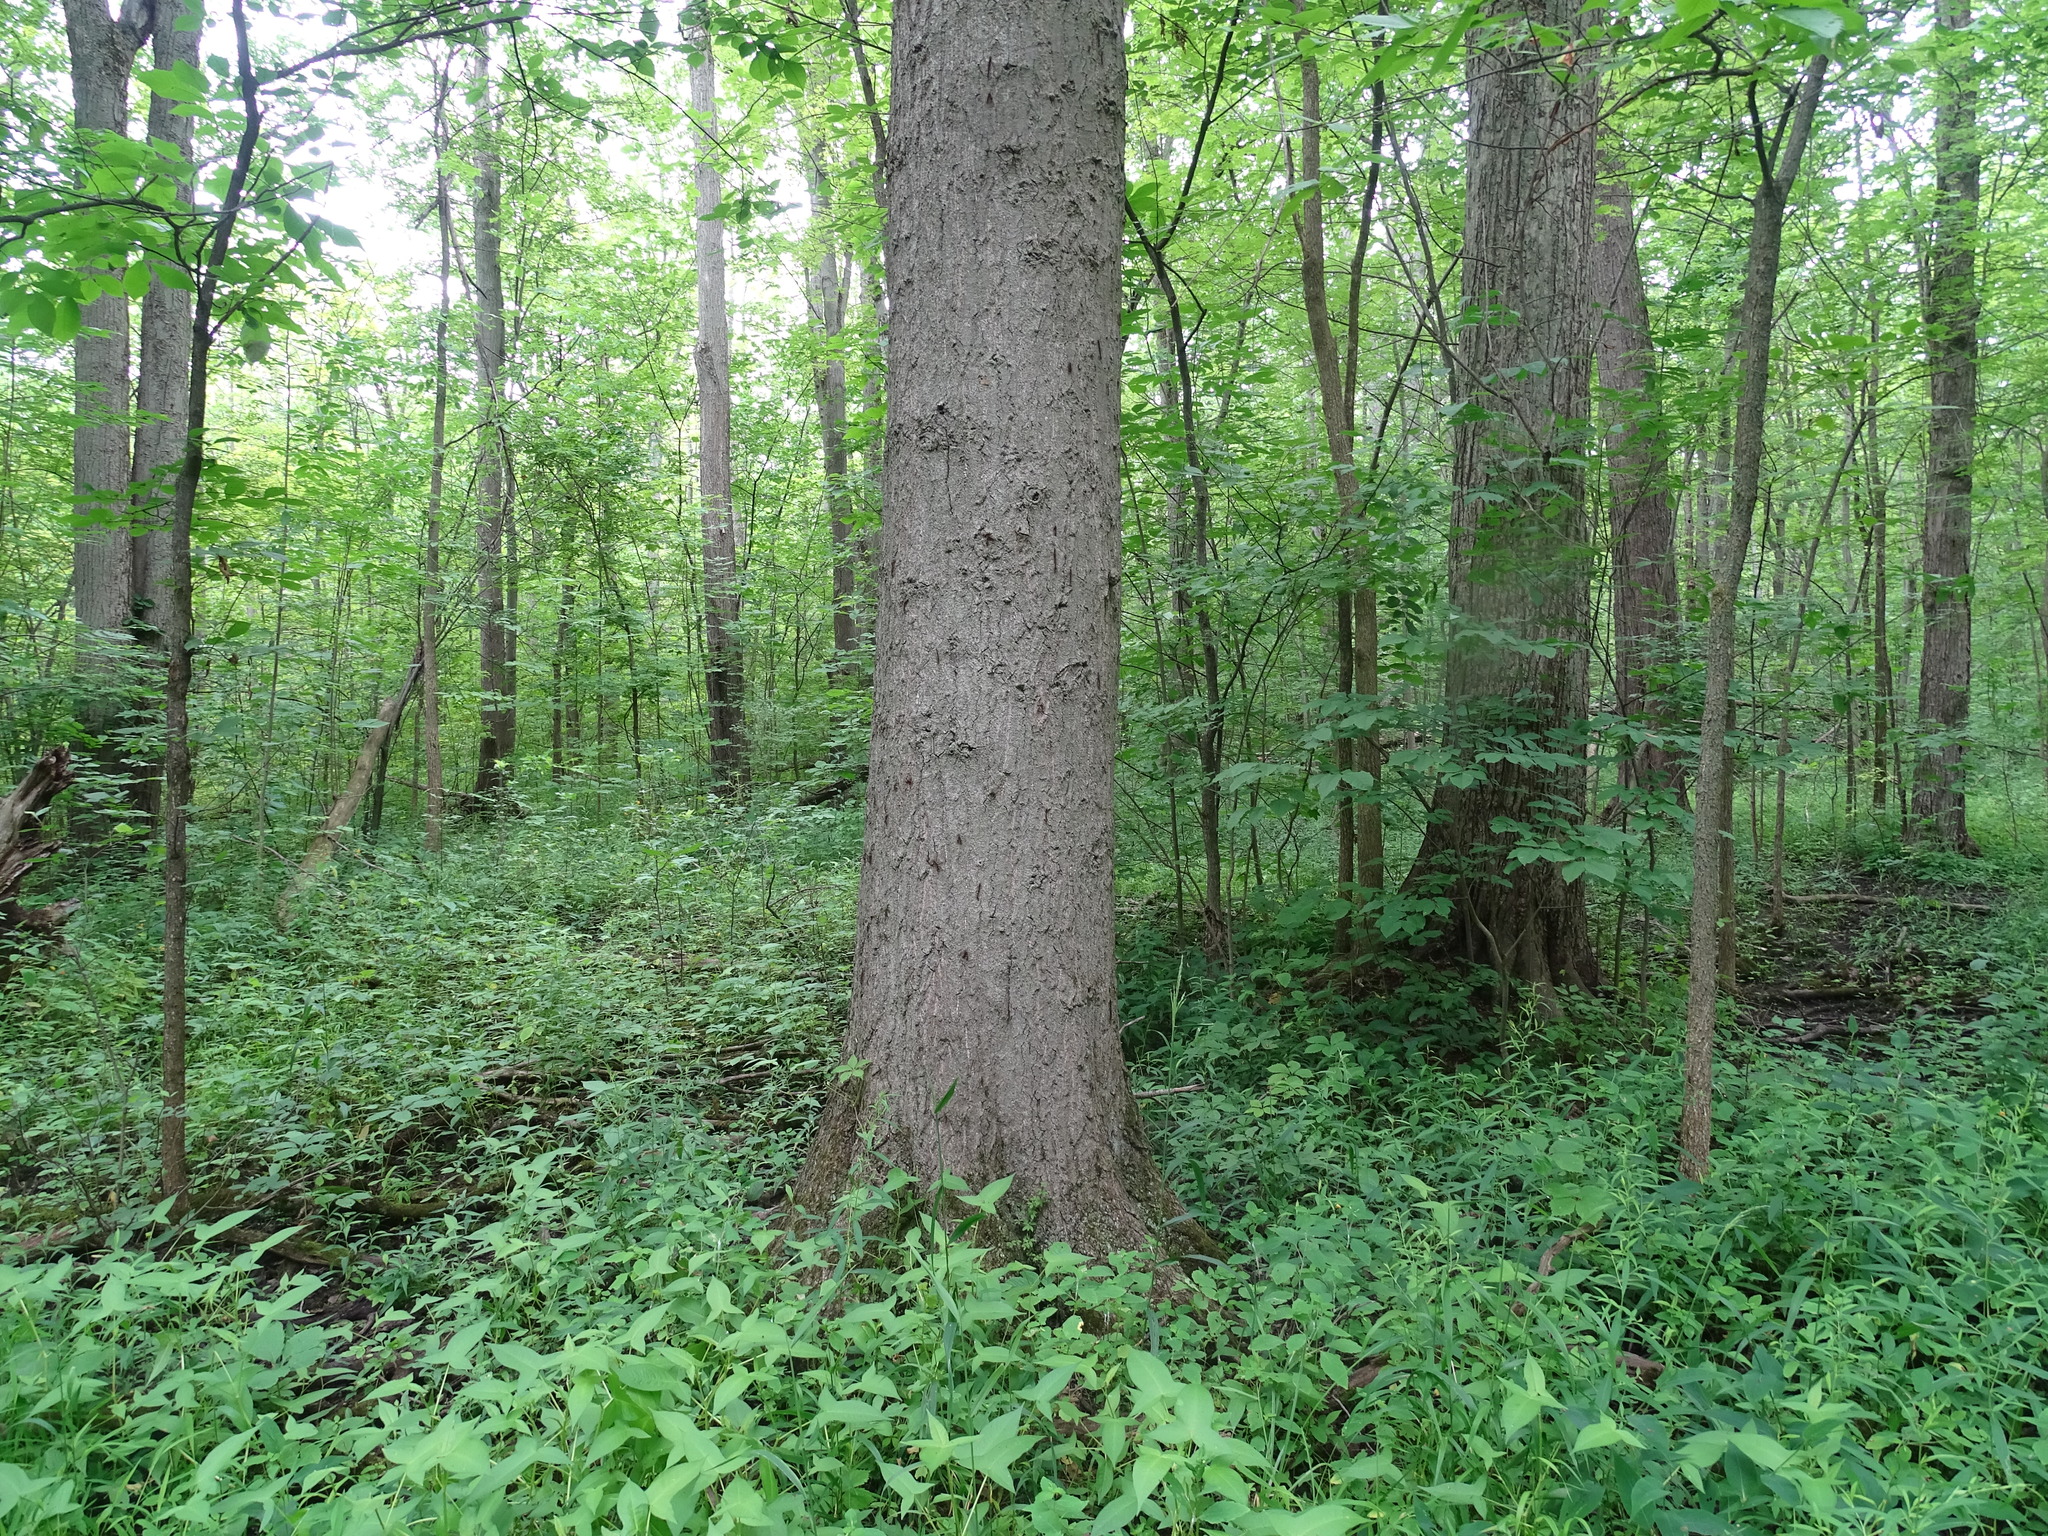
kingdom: Plantae
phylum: Tracheophyta
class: Magnoliopsida
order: Fagales
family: Fagaceae
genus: Quercus
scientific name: Quercus palustris
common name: Pin oak
